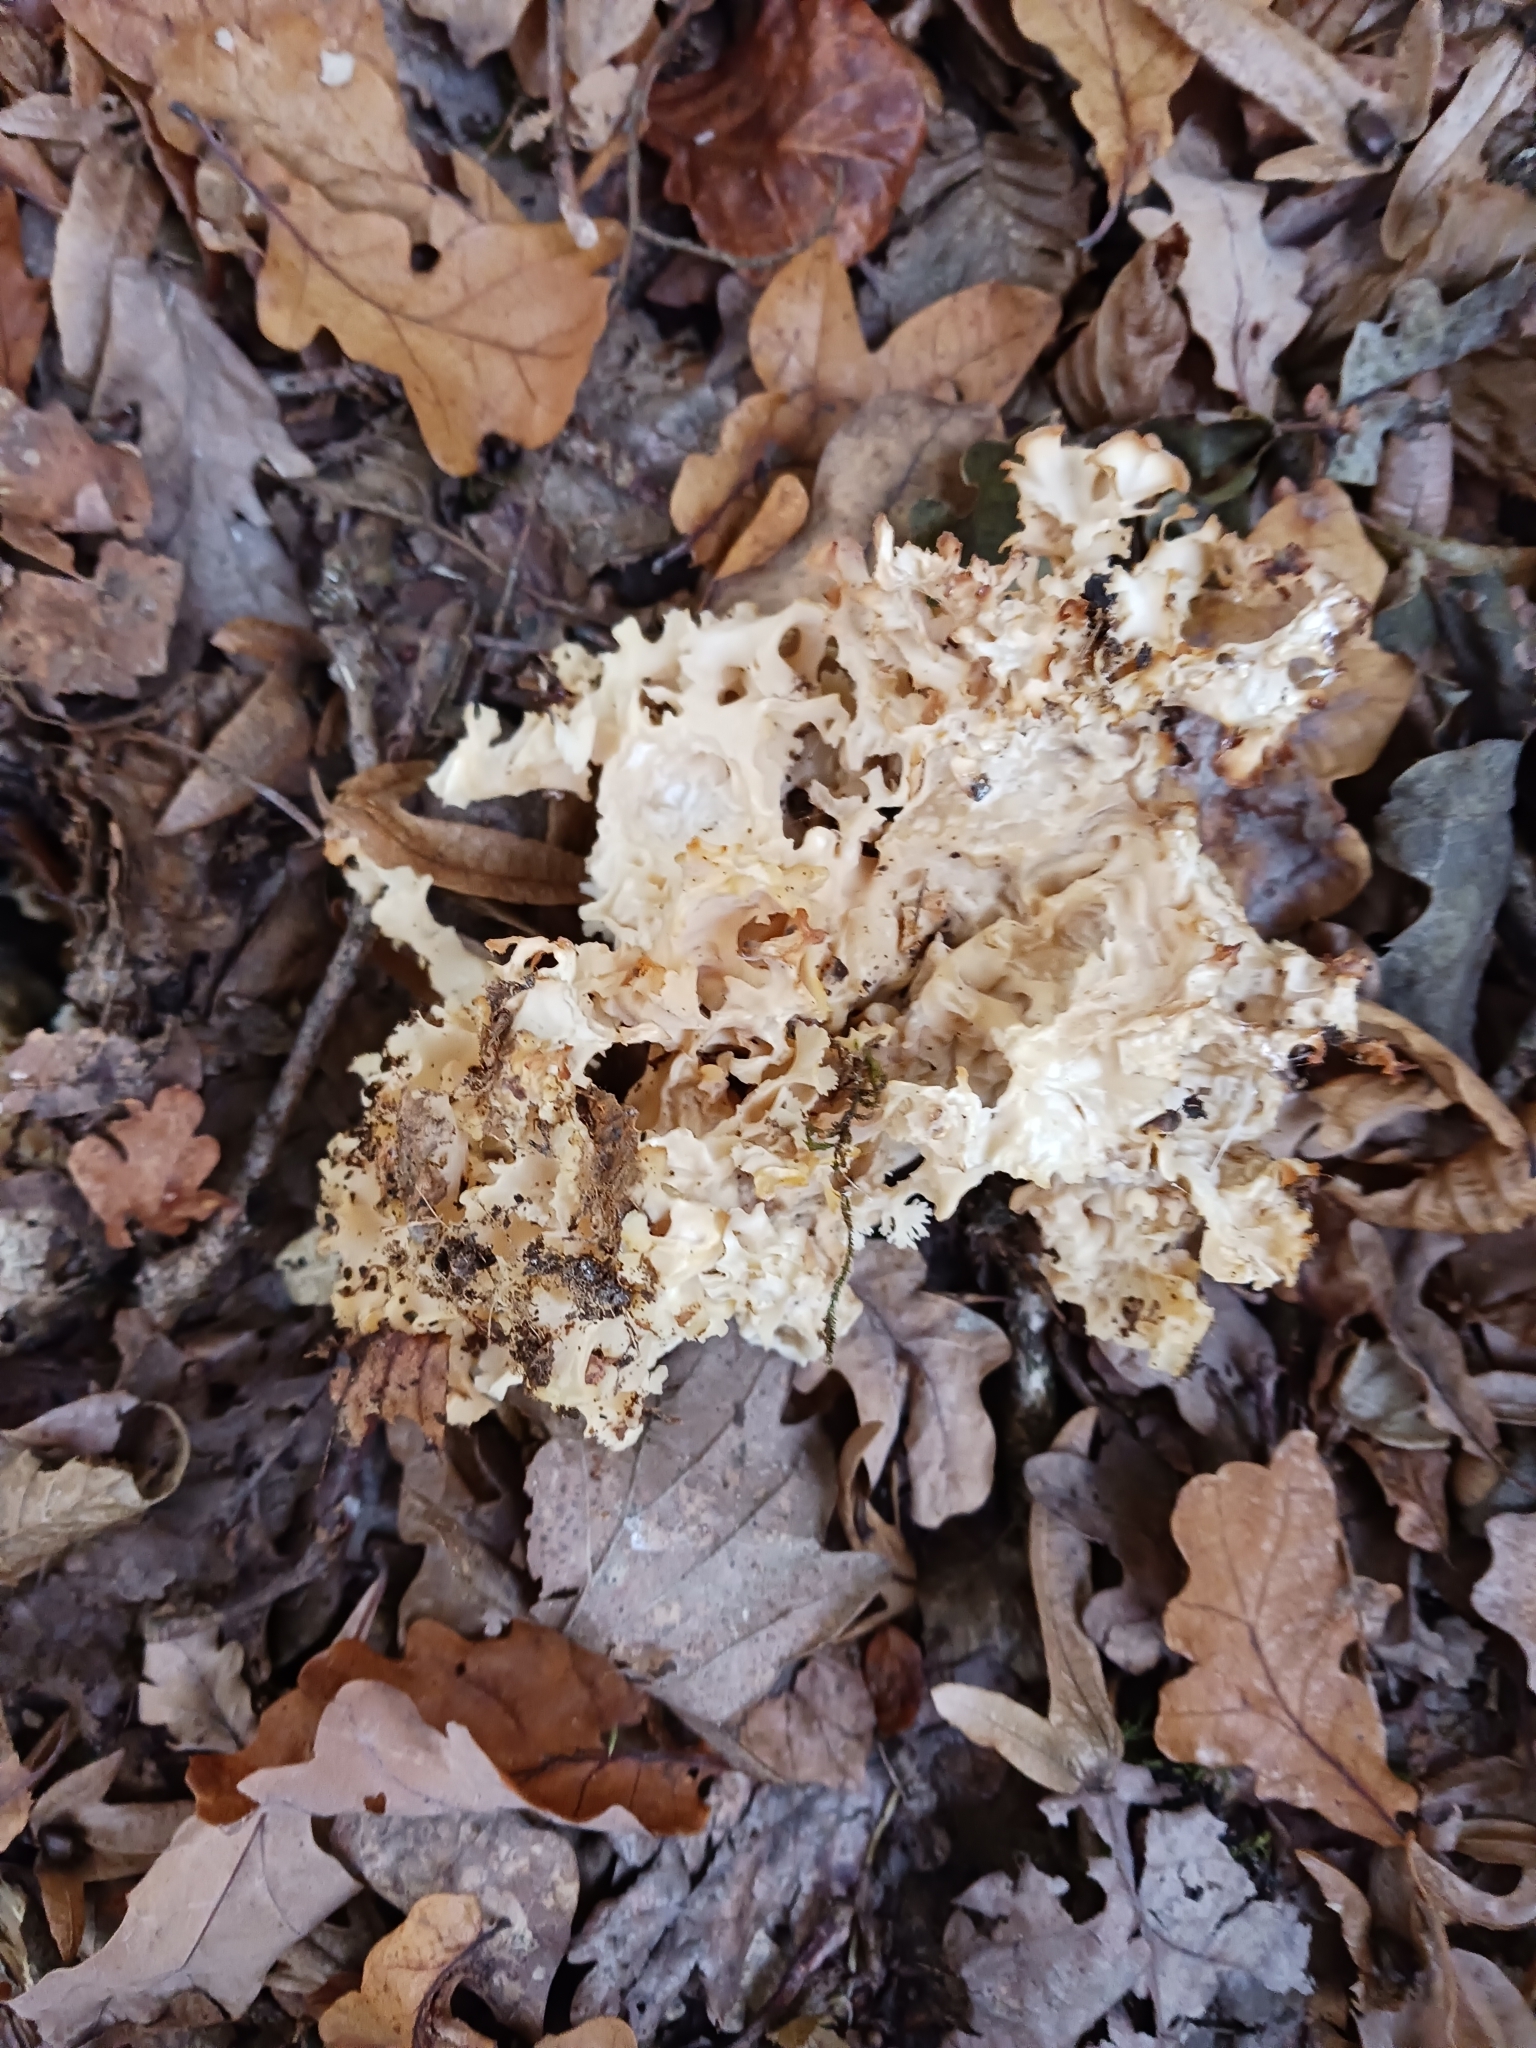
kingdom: Fungi
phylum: Basidiomycota
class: Agaricomycetes
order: Polyporales
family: Sparassidaceae
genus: Sparassis
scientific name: Sparassis crispa
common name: Brain fungus
